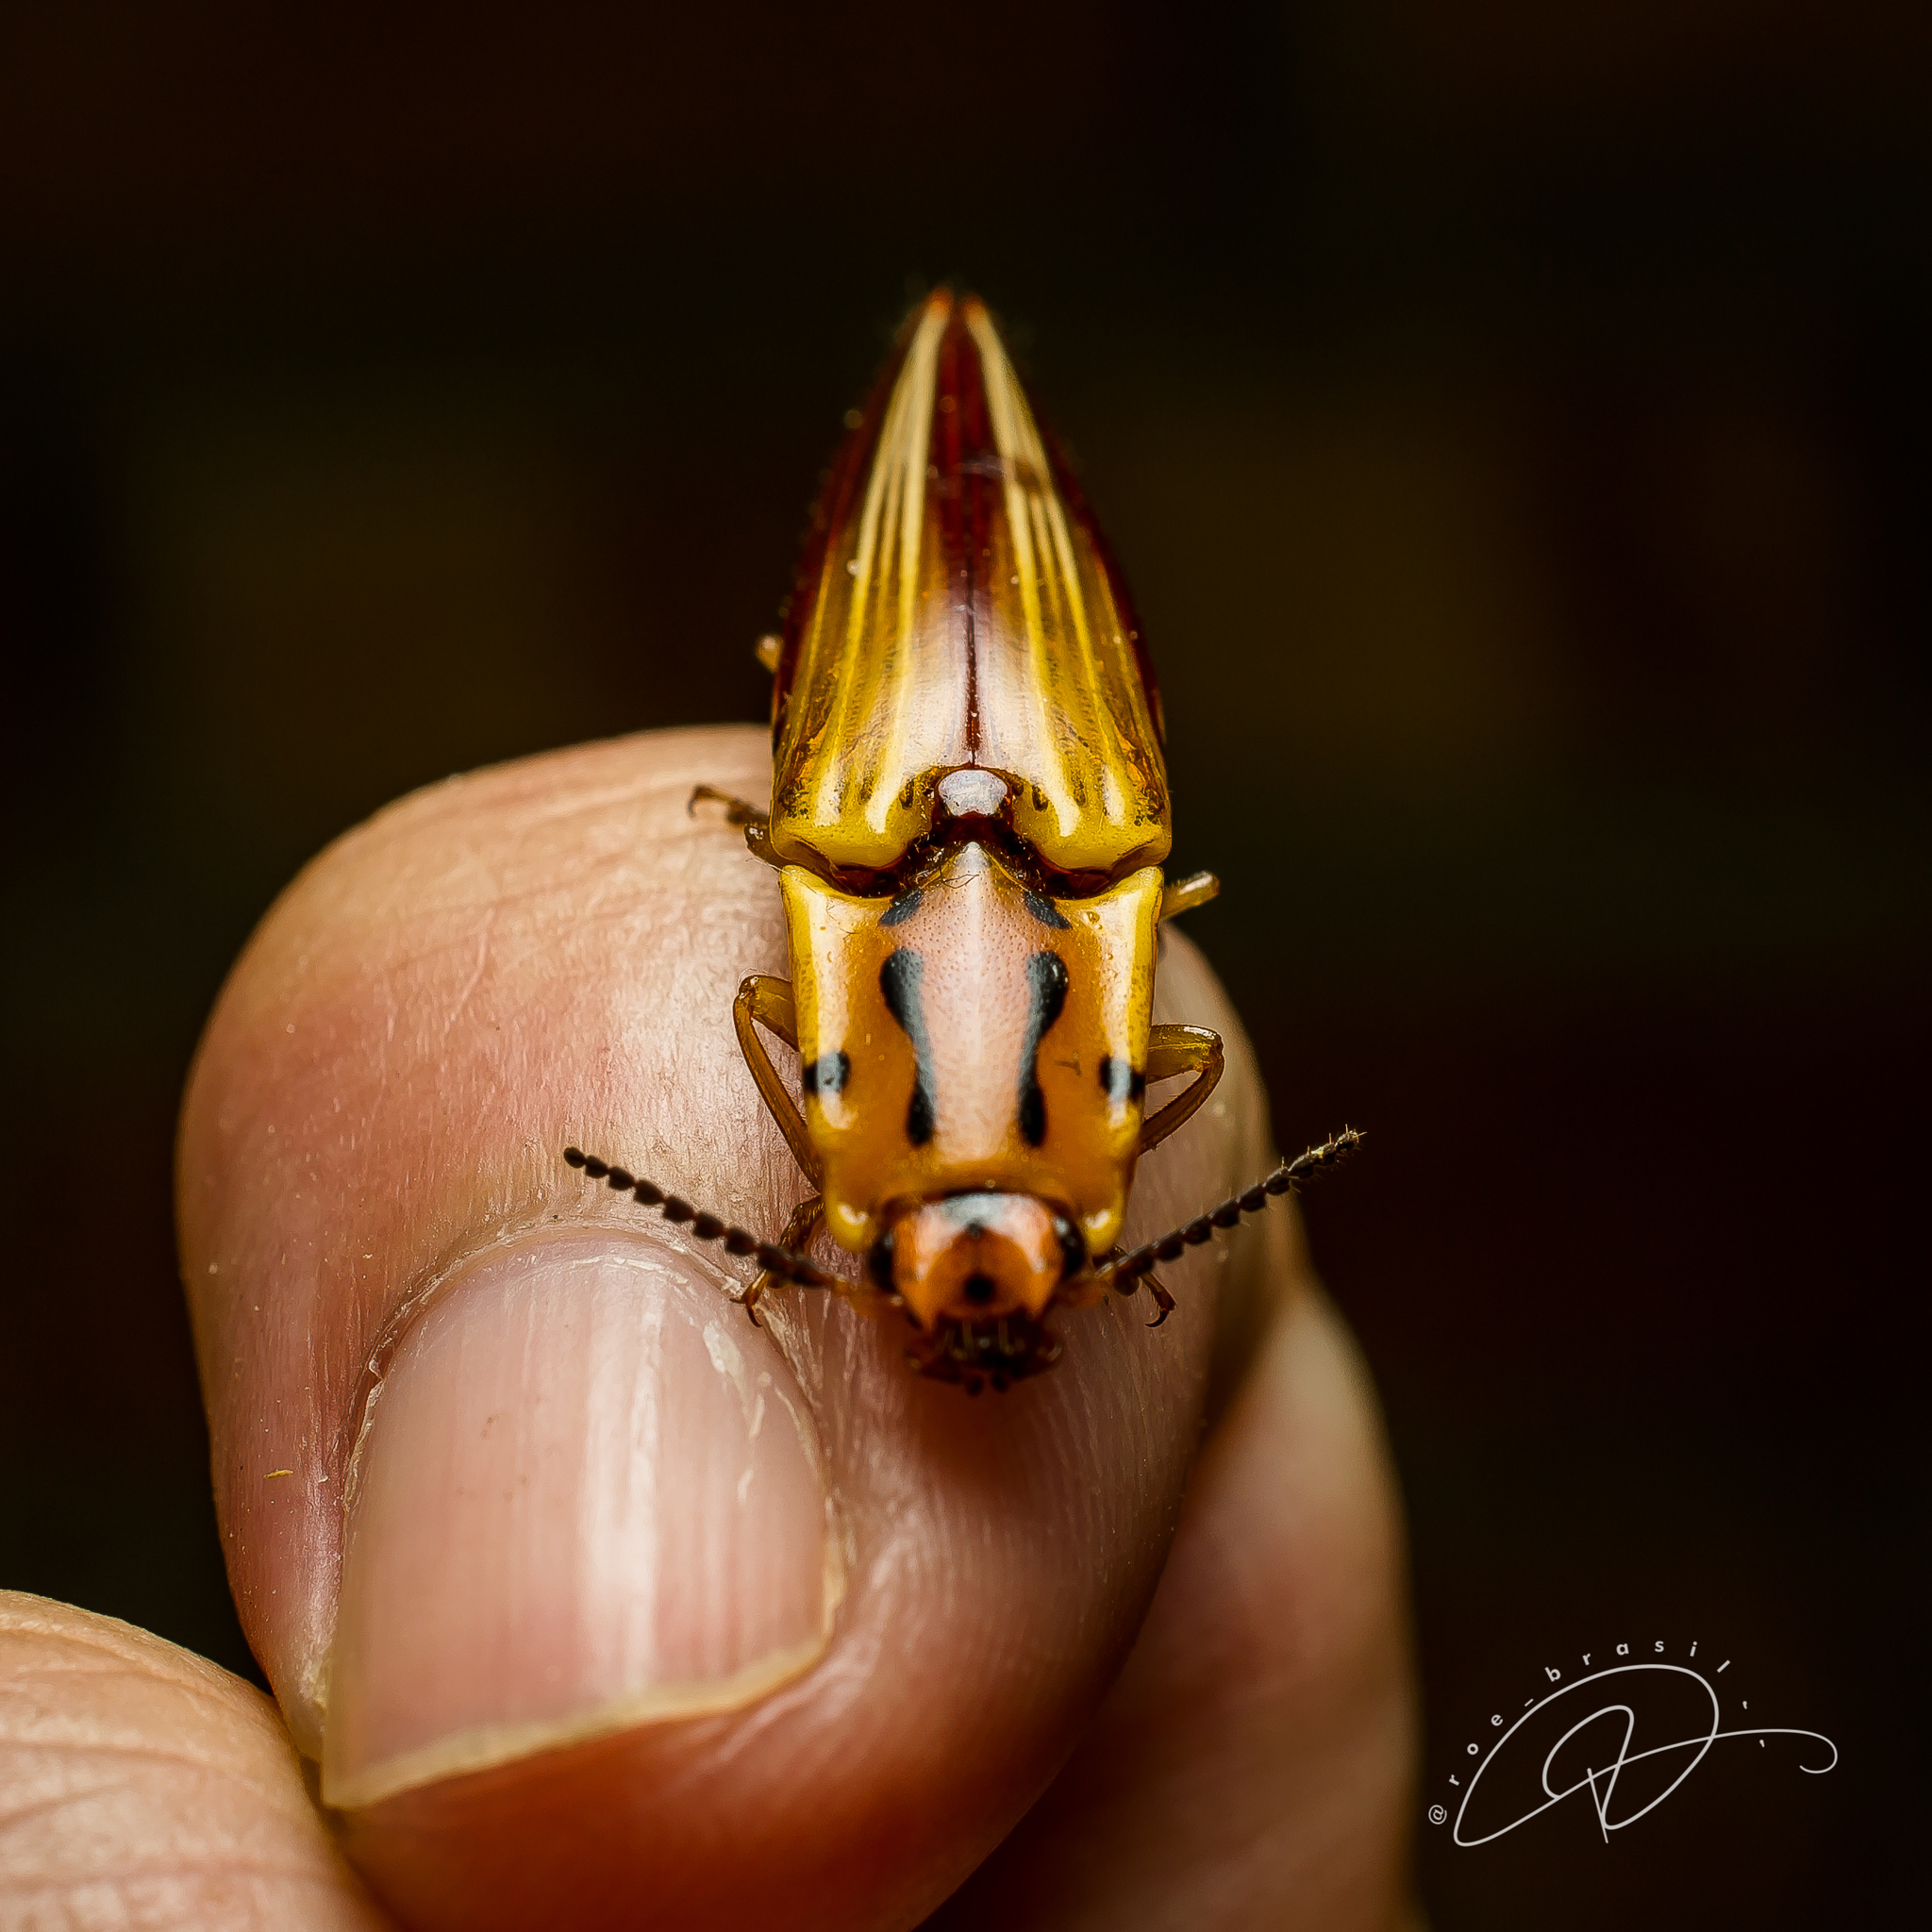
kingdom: Animalia
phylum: Arthropoda
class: Insecta
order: Coleoptera
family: Elateridae
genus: Semiotus
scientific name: Semiotus intermedius
